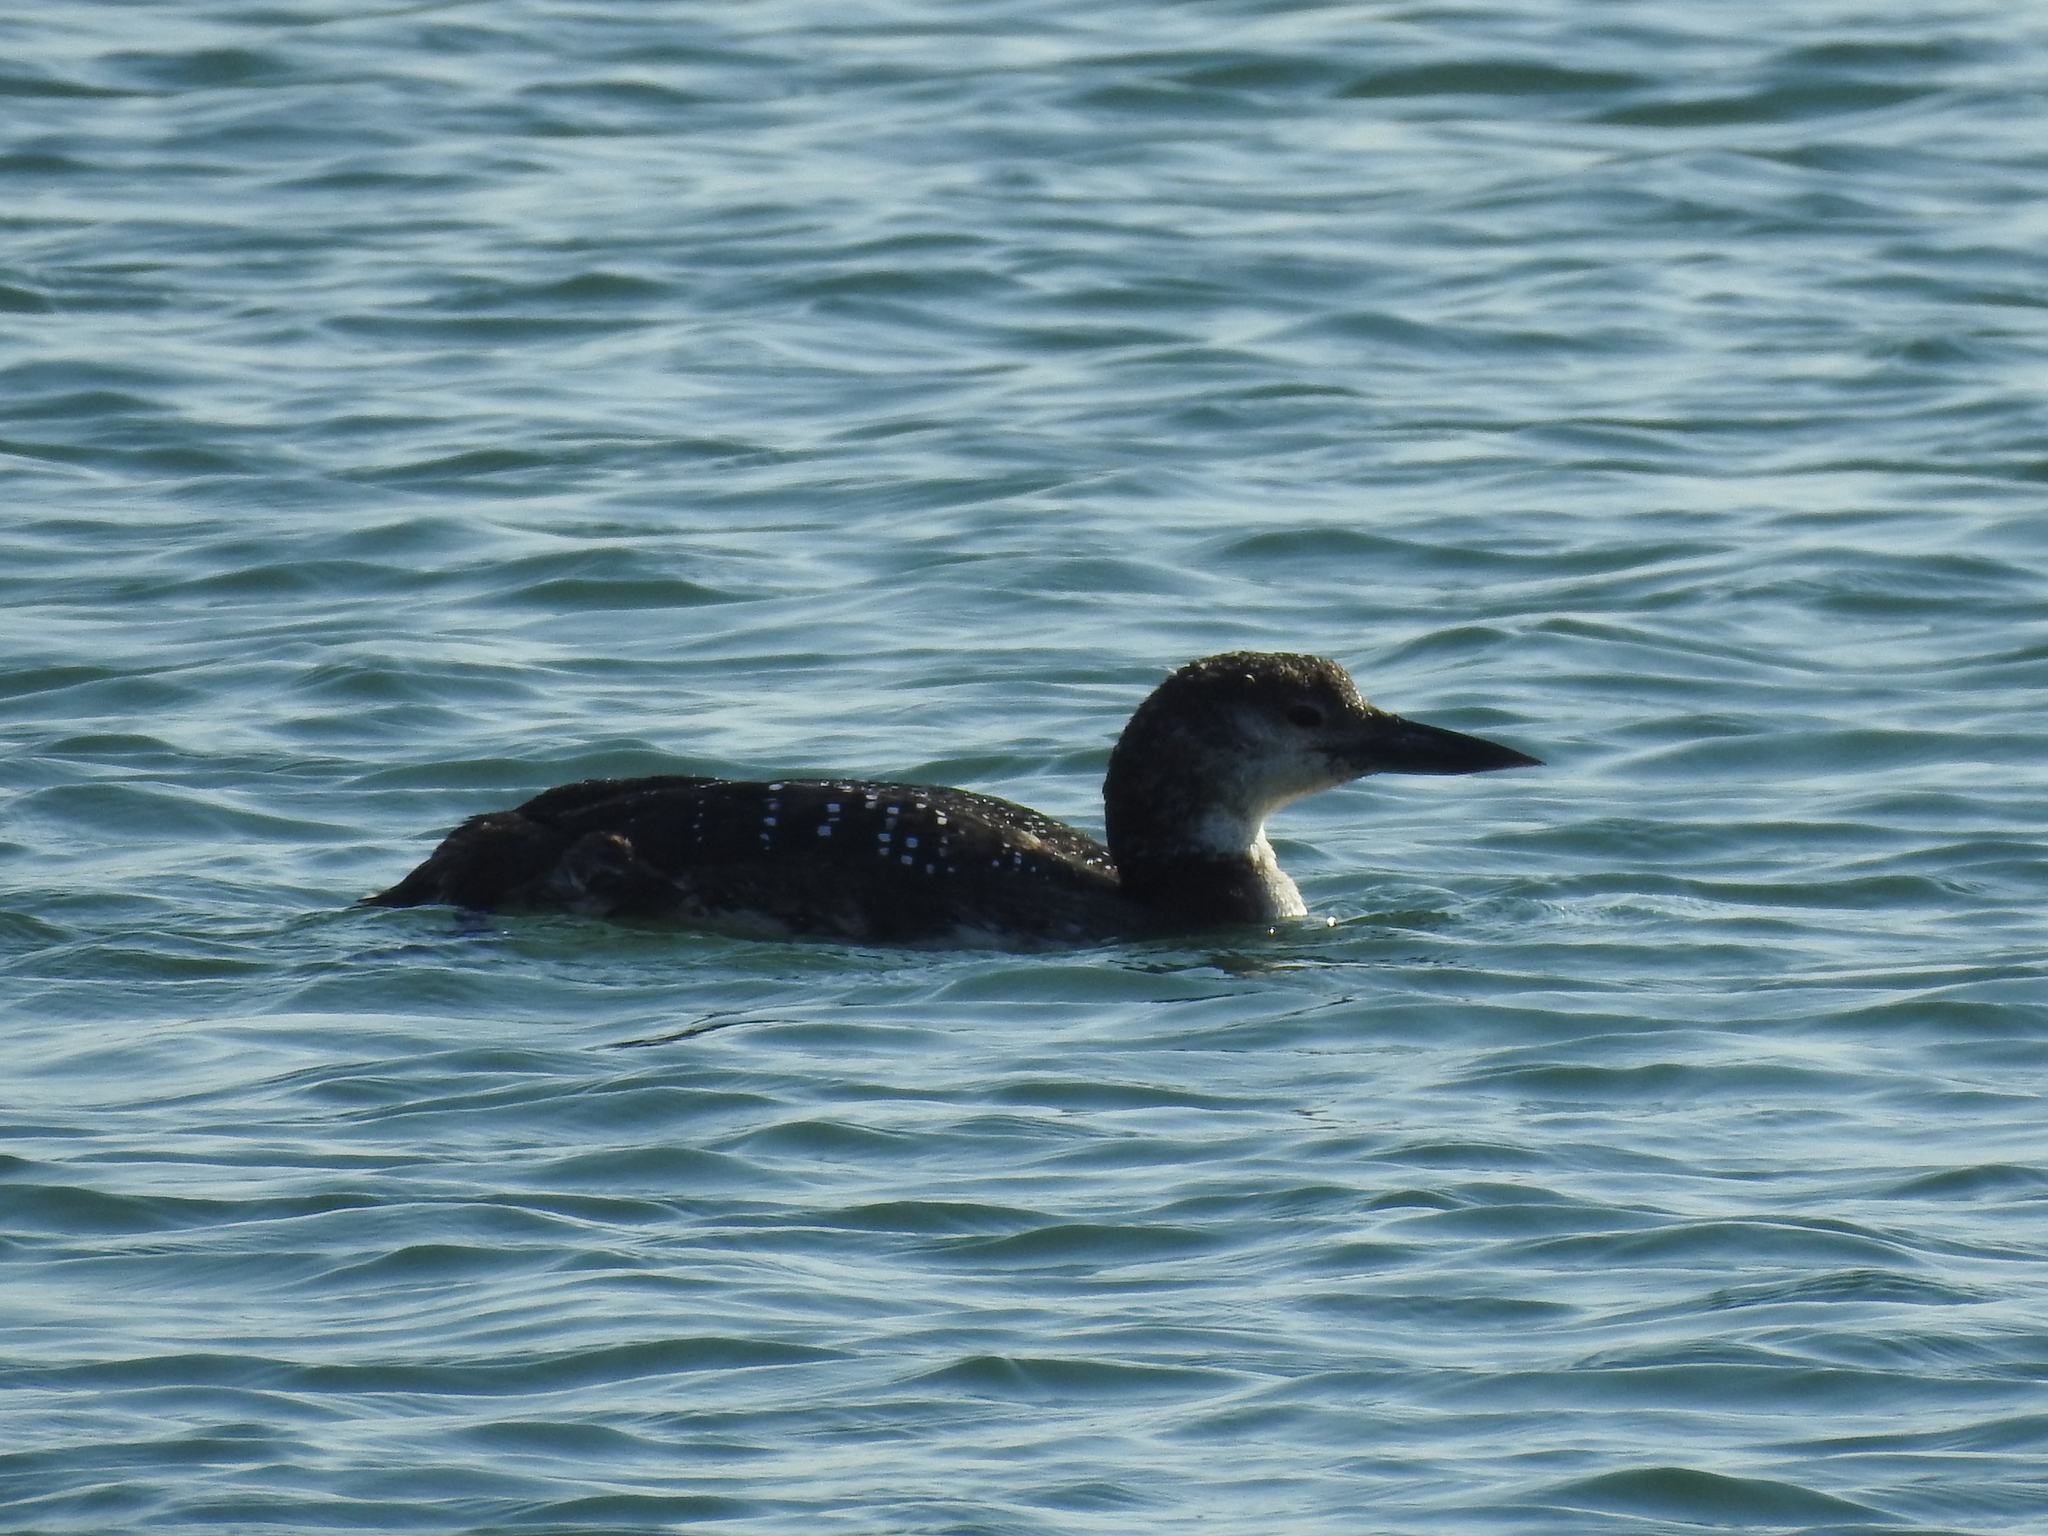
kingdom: Animalia
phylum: Chordata
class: Aves
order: Gaviiformes
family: Gaviidae
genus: Gavia
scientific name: Gavia immer
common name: Common loon
